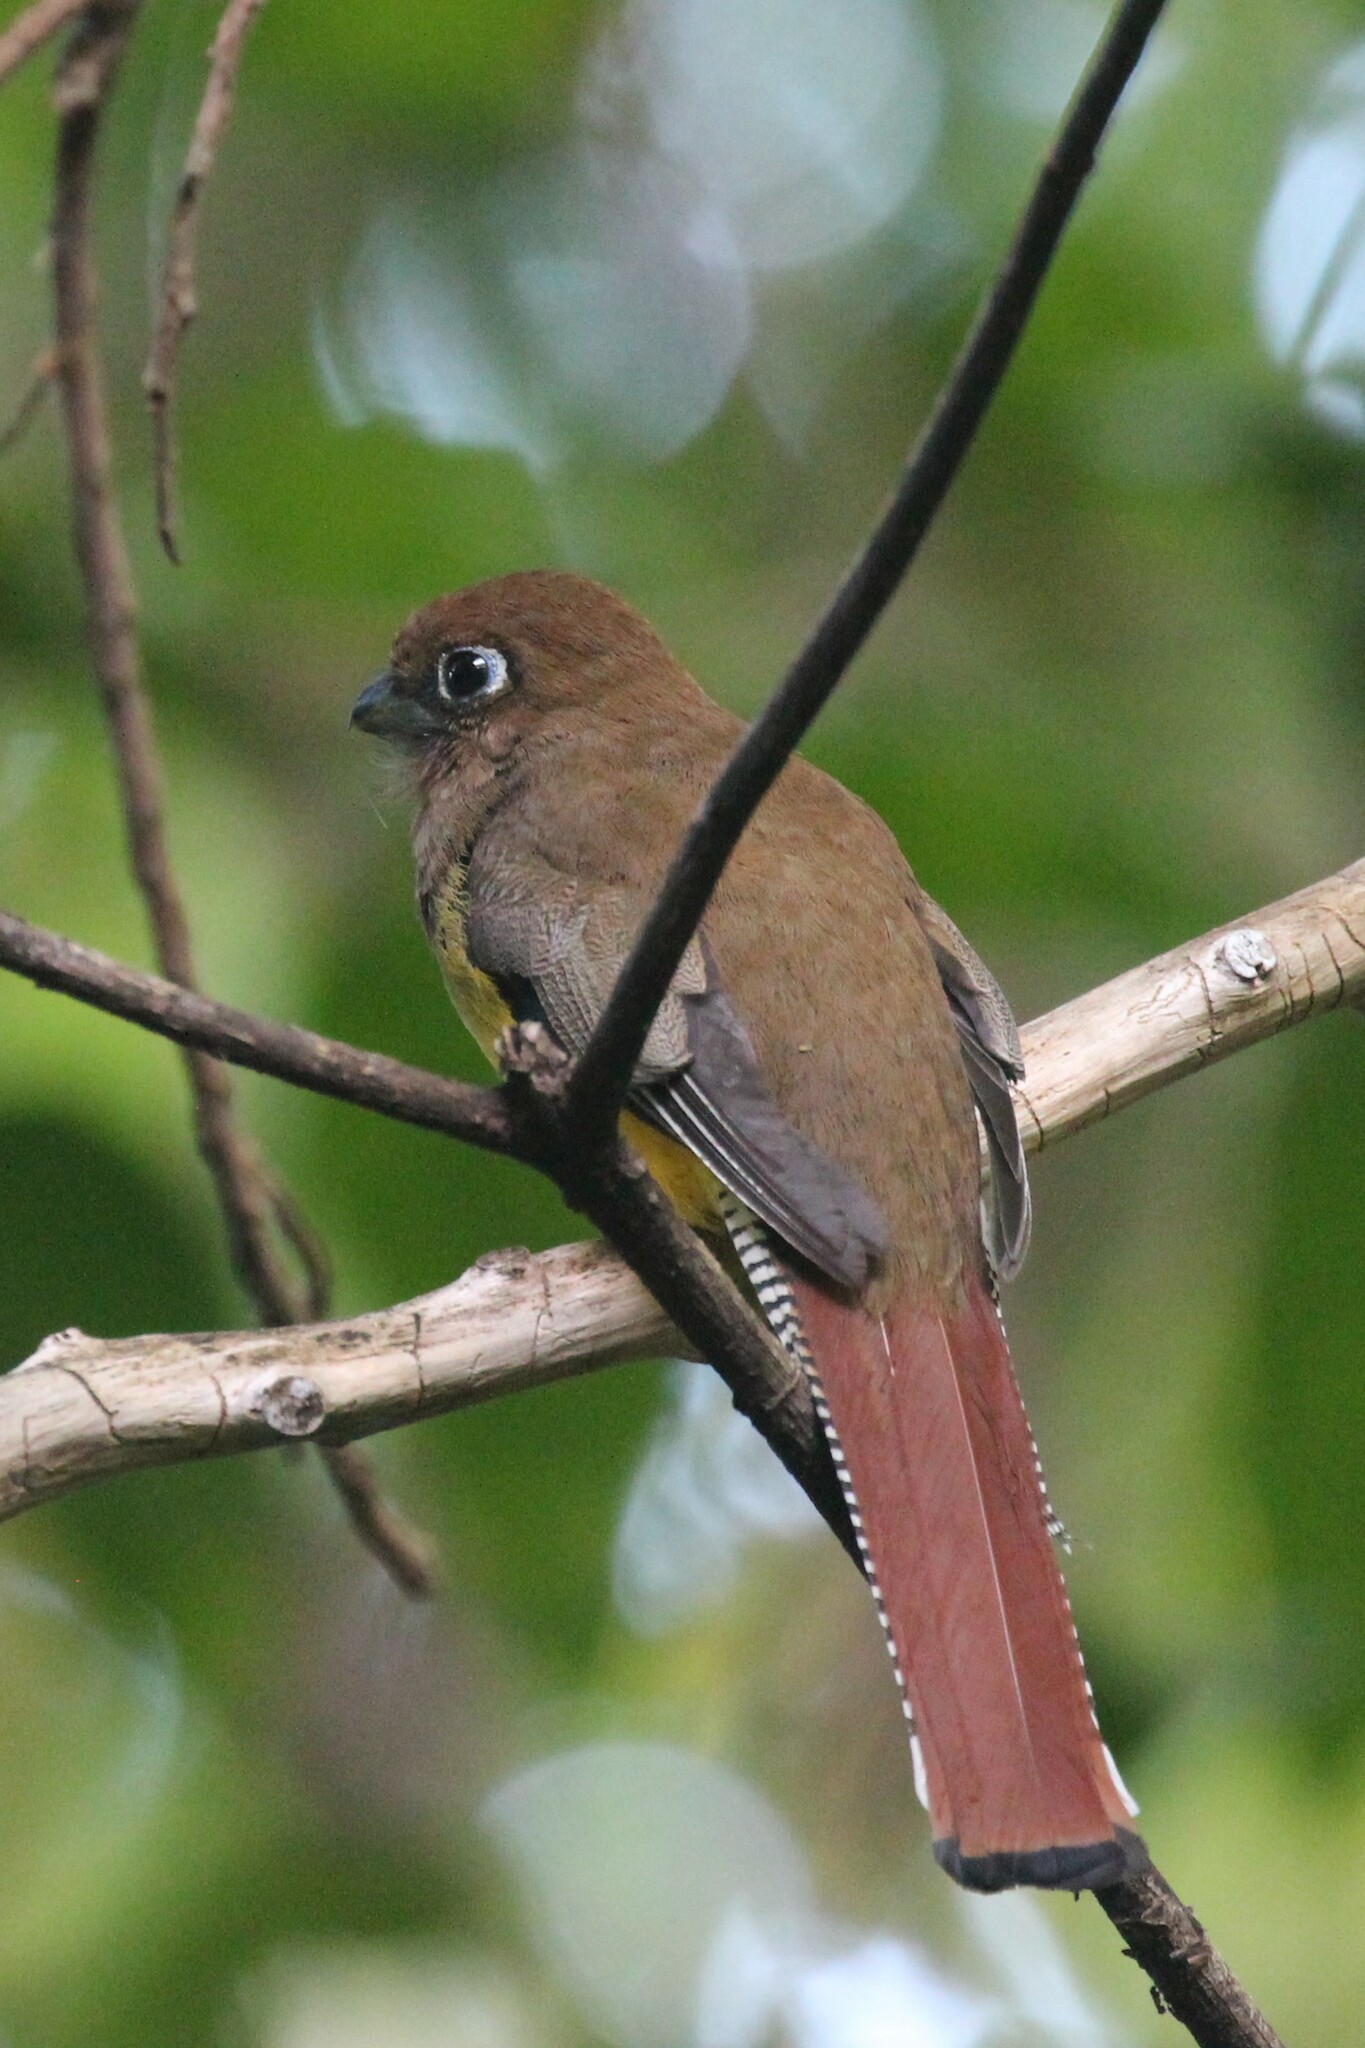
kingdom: Animalia
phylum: Chordata
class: Aves
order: Trogoniformes
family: Trogonidae
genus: Trogon
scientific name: Trogon rufus
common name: Black-throated trogon
